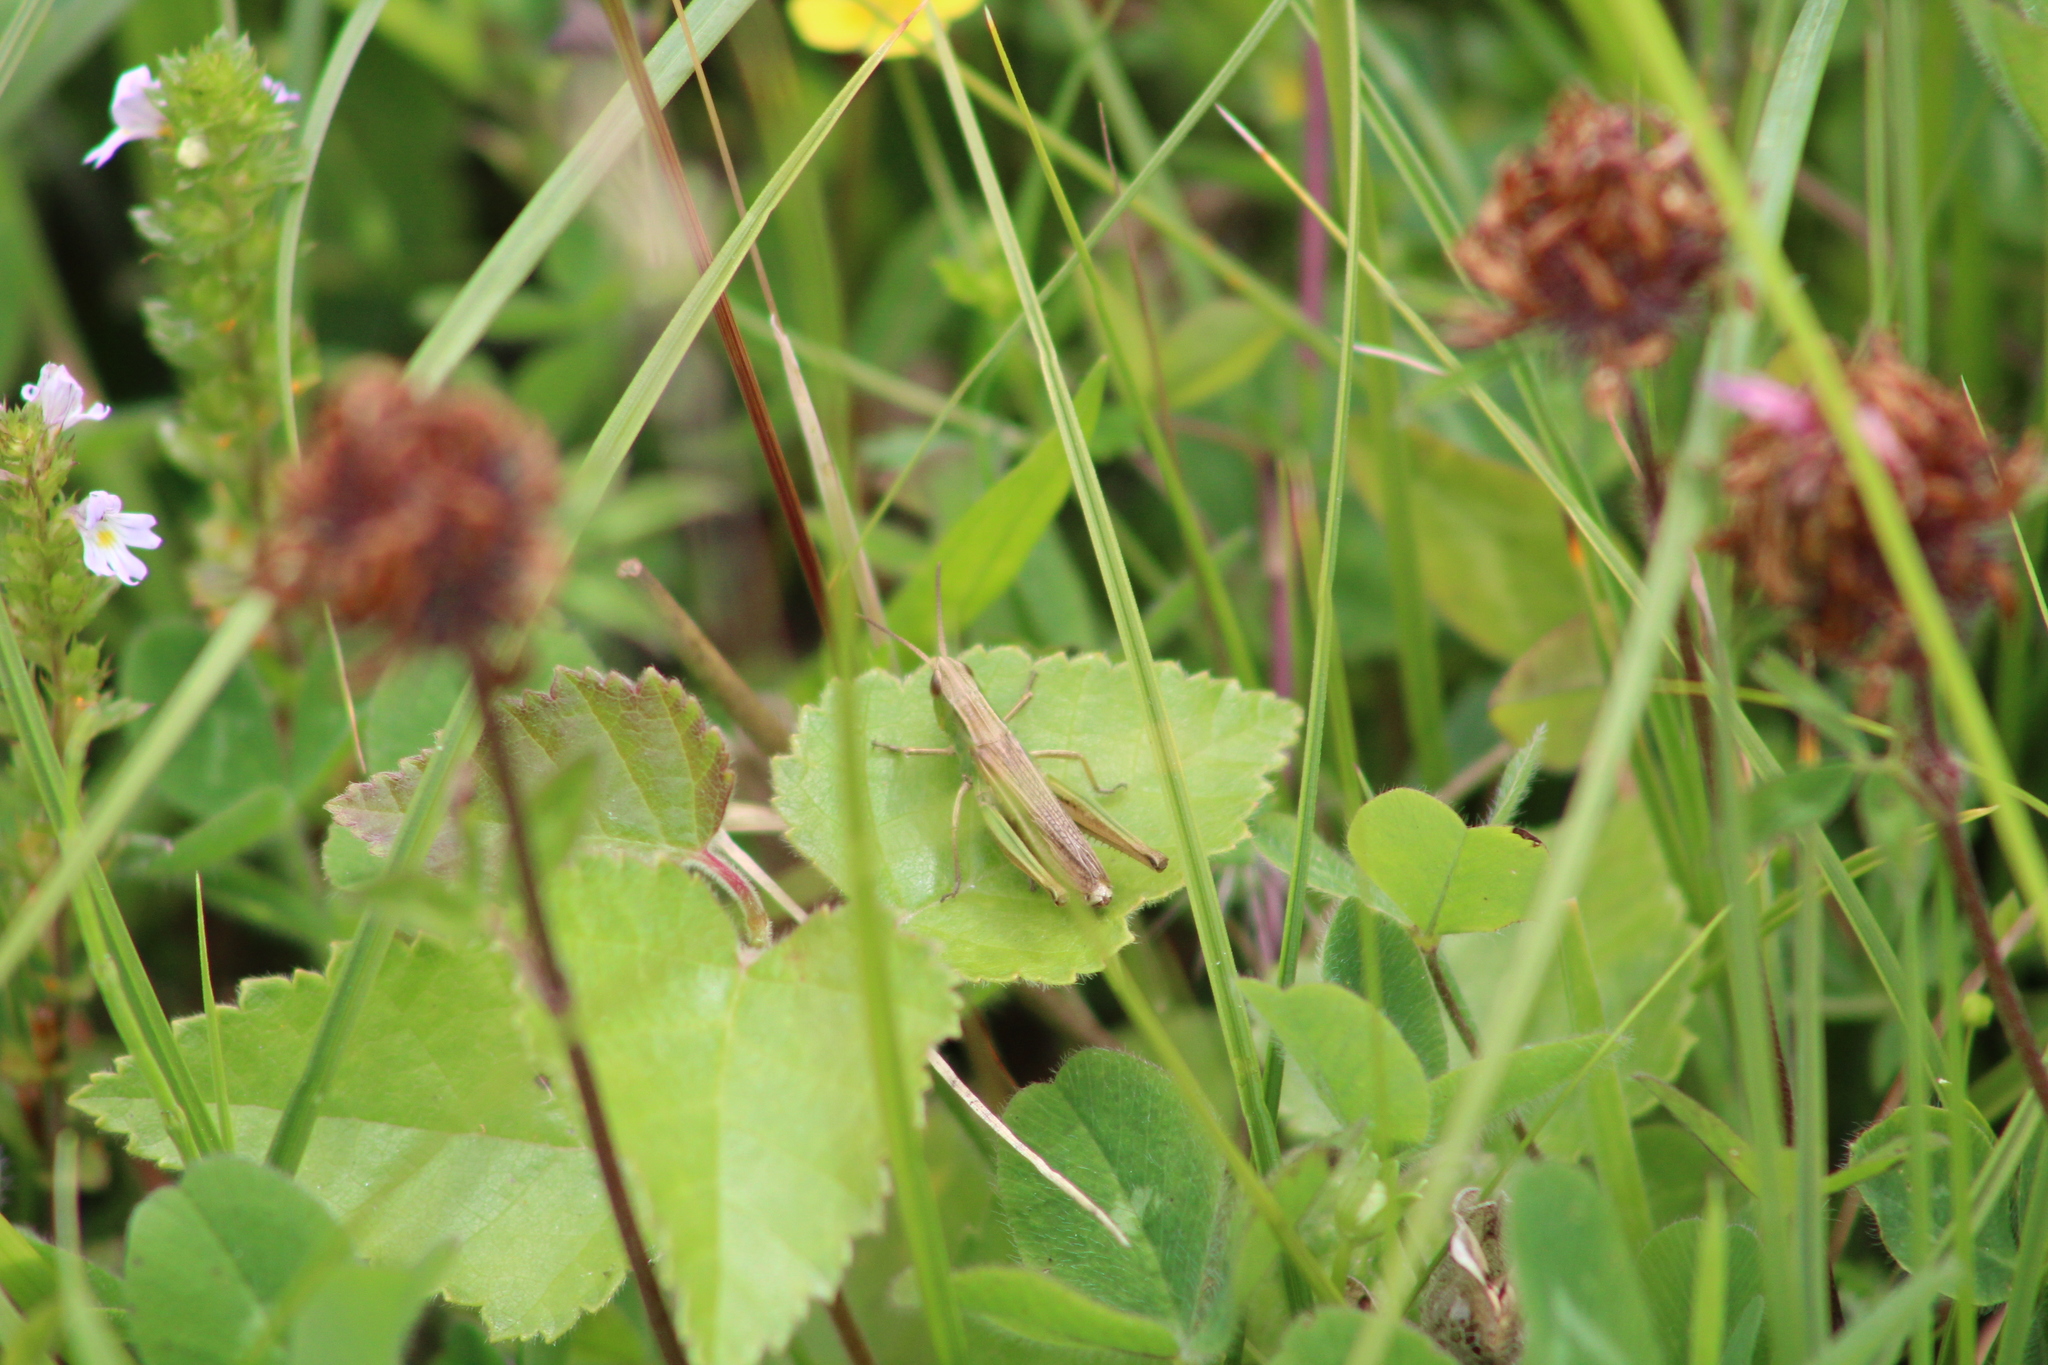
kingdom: Animalia
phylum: Arthropoda
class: Insecta
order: Orthoptera
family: Acrididae
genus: Chorthippus
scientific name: Chorthippus albomarginatus
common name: Lesser marsh grasshopper
